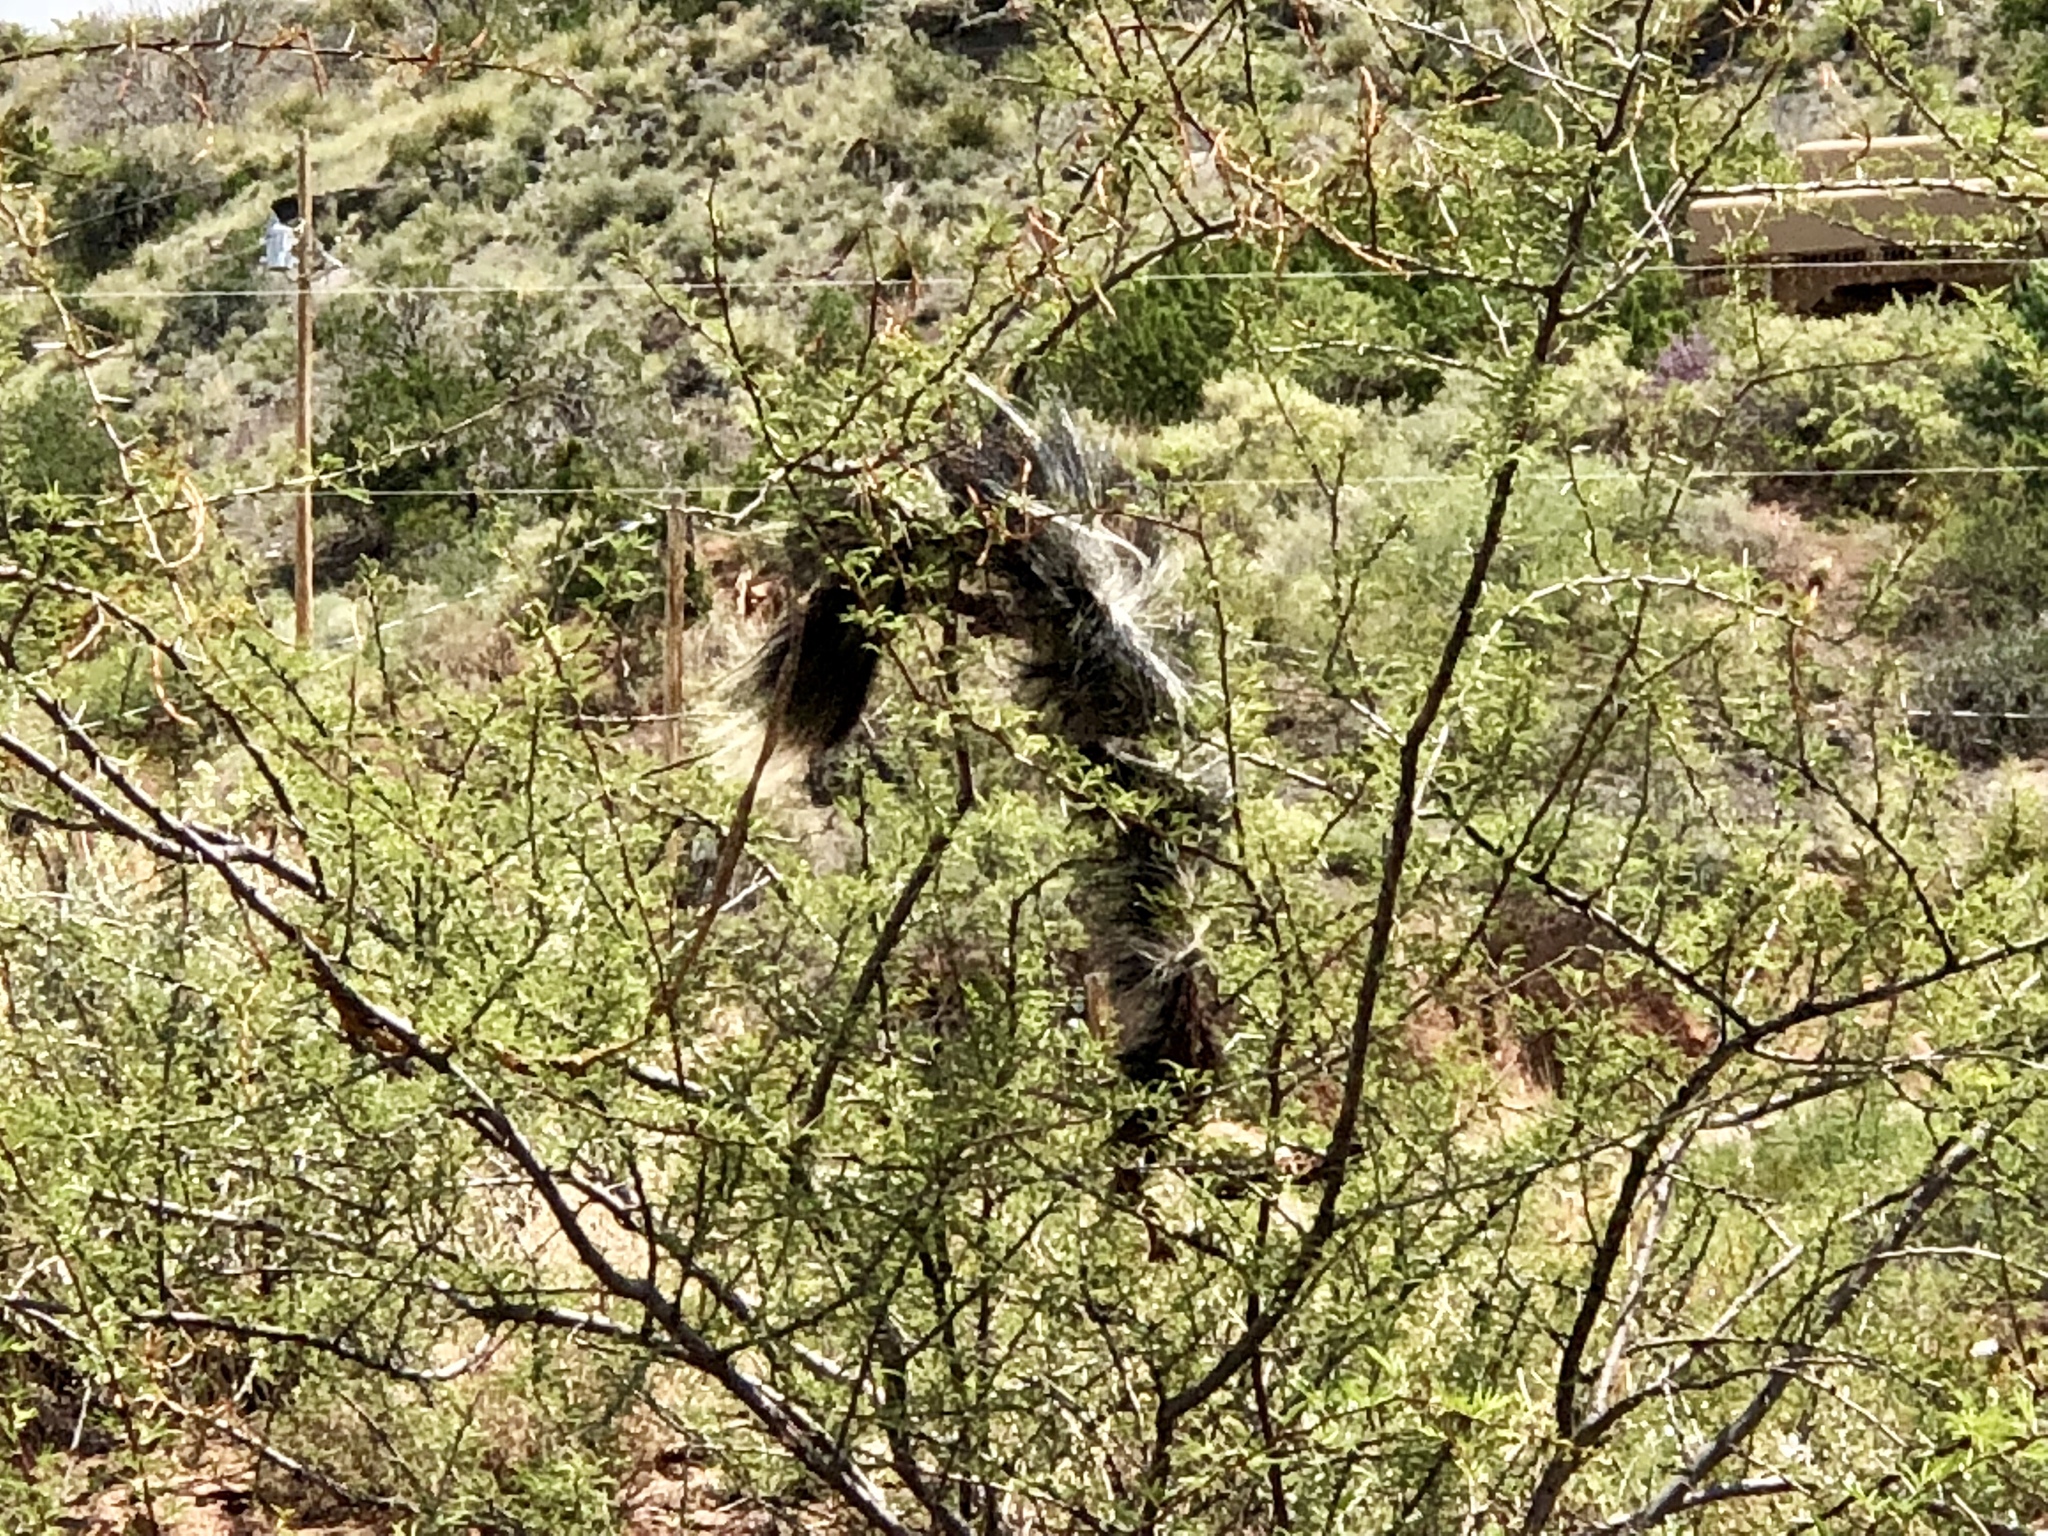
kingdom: Animalia
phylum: Chordata
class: Mammalia
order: Carnivora
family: Mephitidae
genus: Mephitis
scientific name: Mephitis mephitis
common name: Striped skunk
